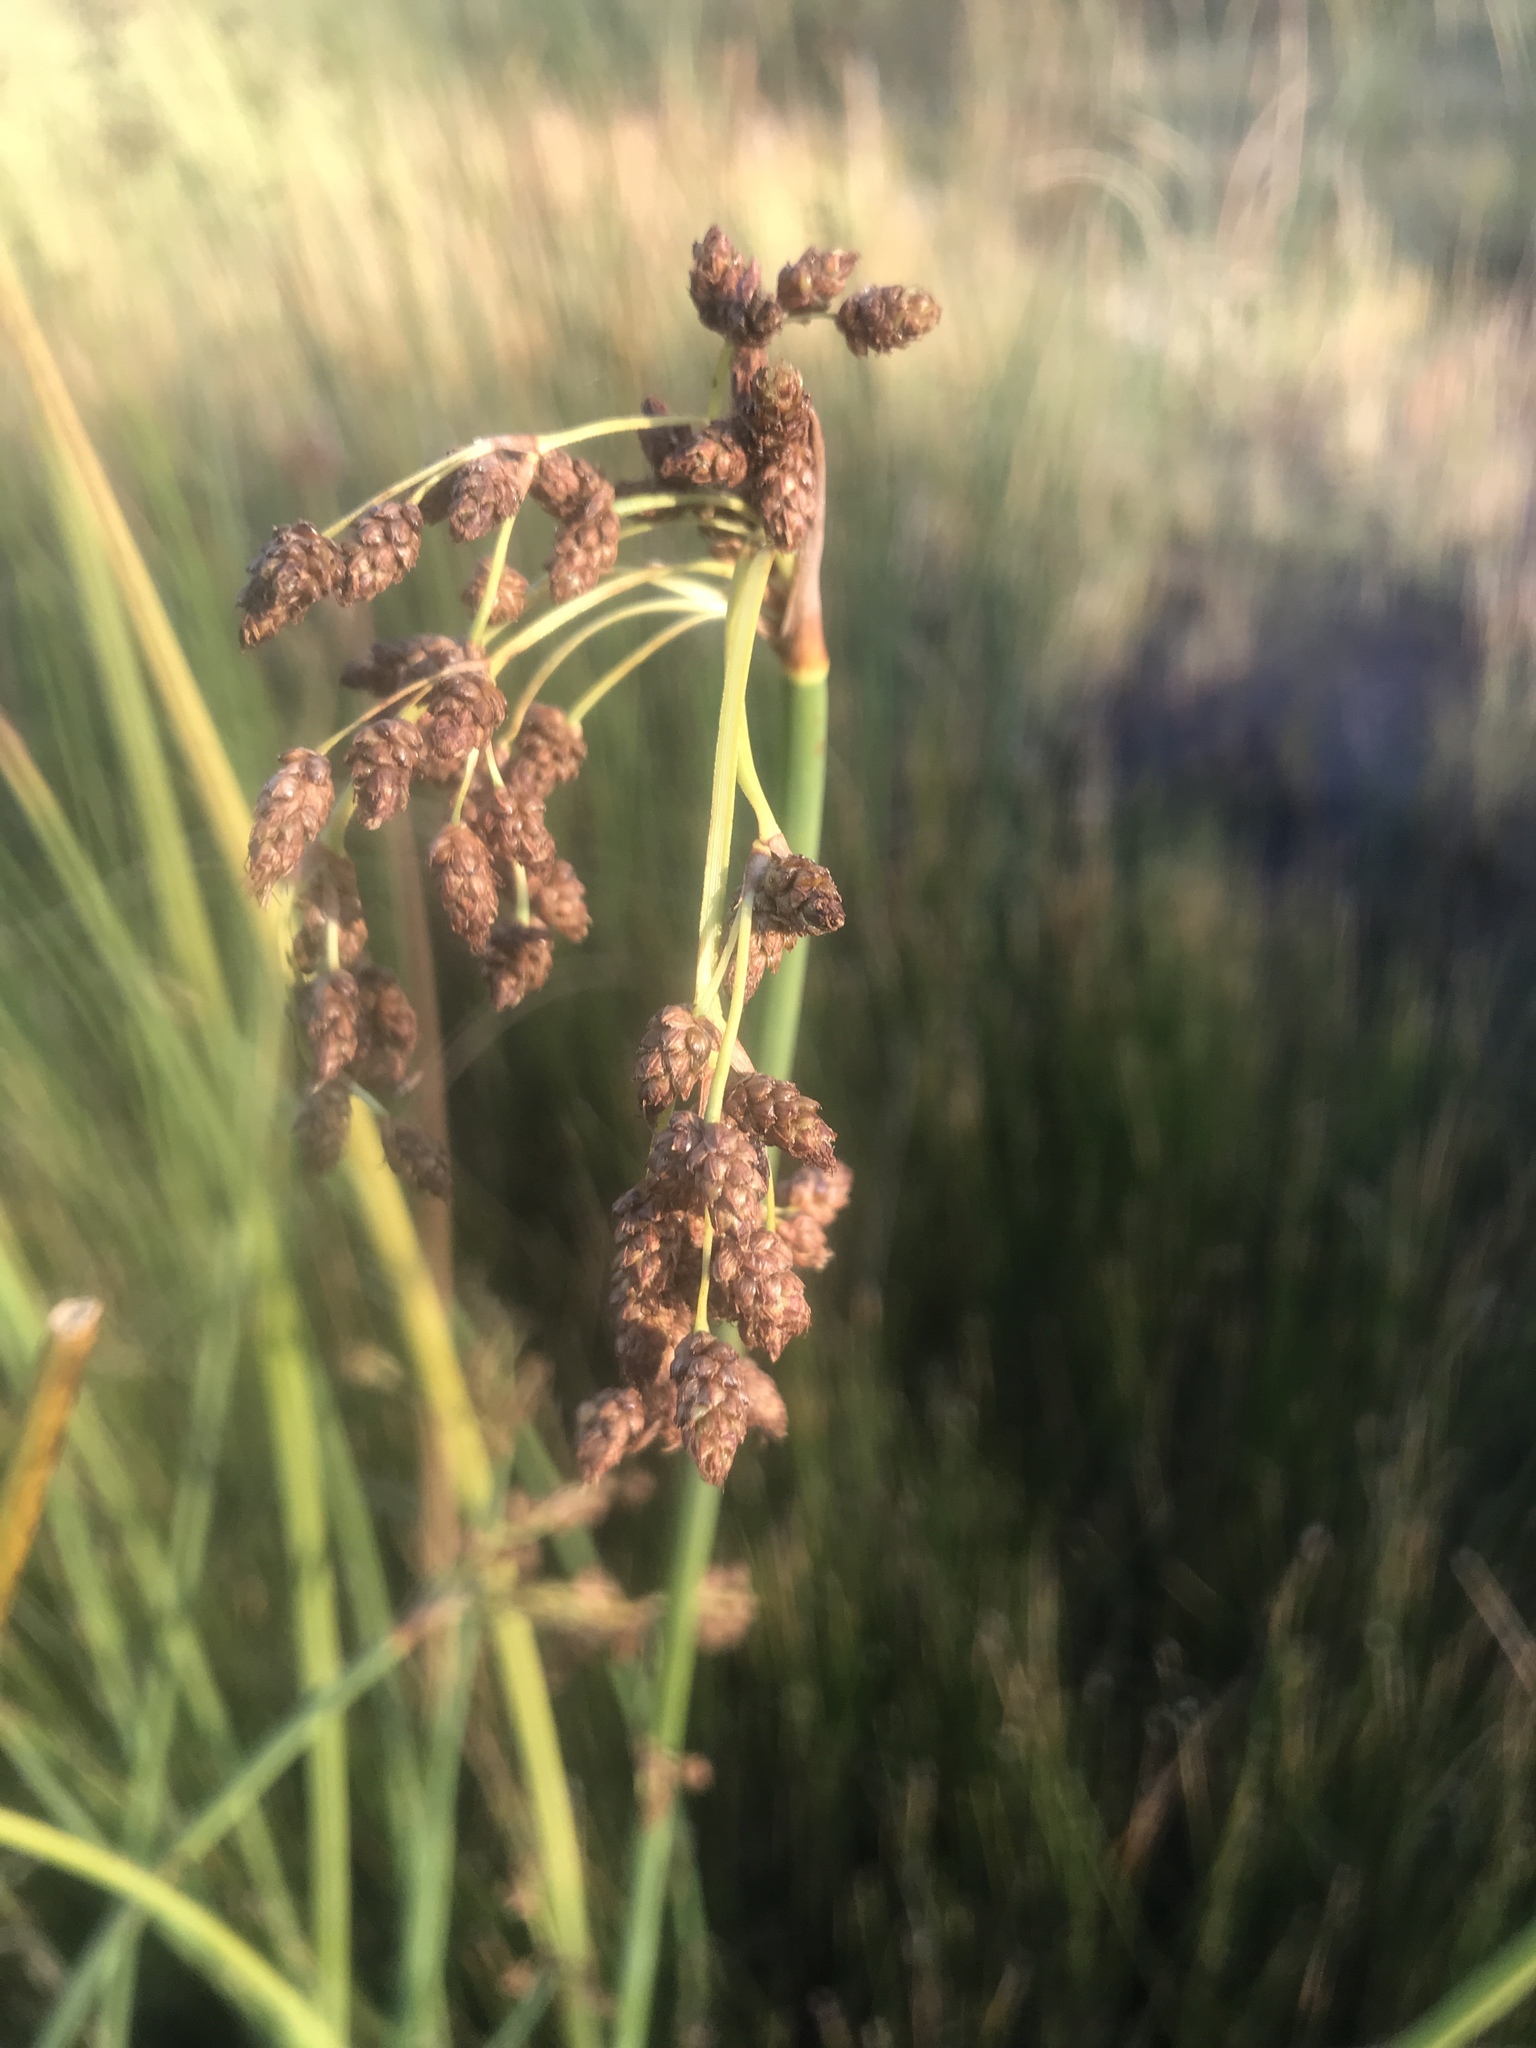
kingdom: Plantae
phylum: Tracheophyta
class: Liliopsida
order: Poales
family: Cyperaceae
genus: Schoenoplectus
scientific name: Schoenoplectus tabernaemontani
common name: Grey club-rush
